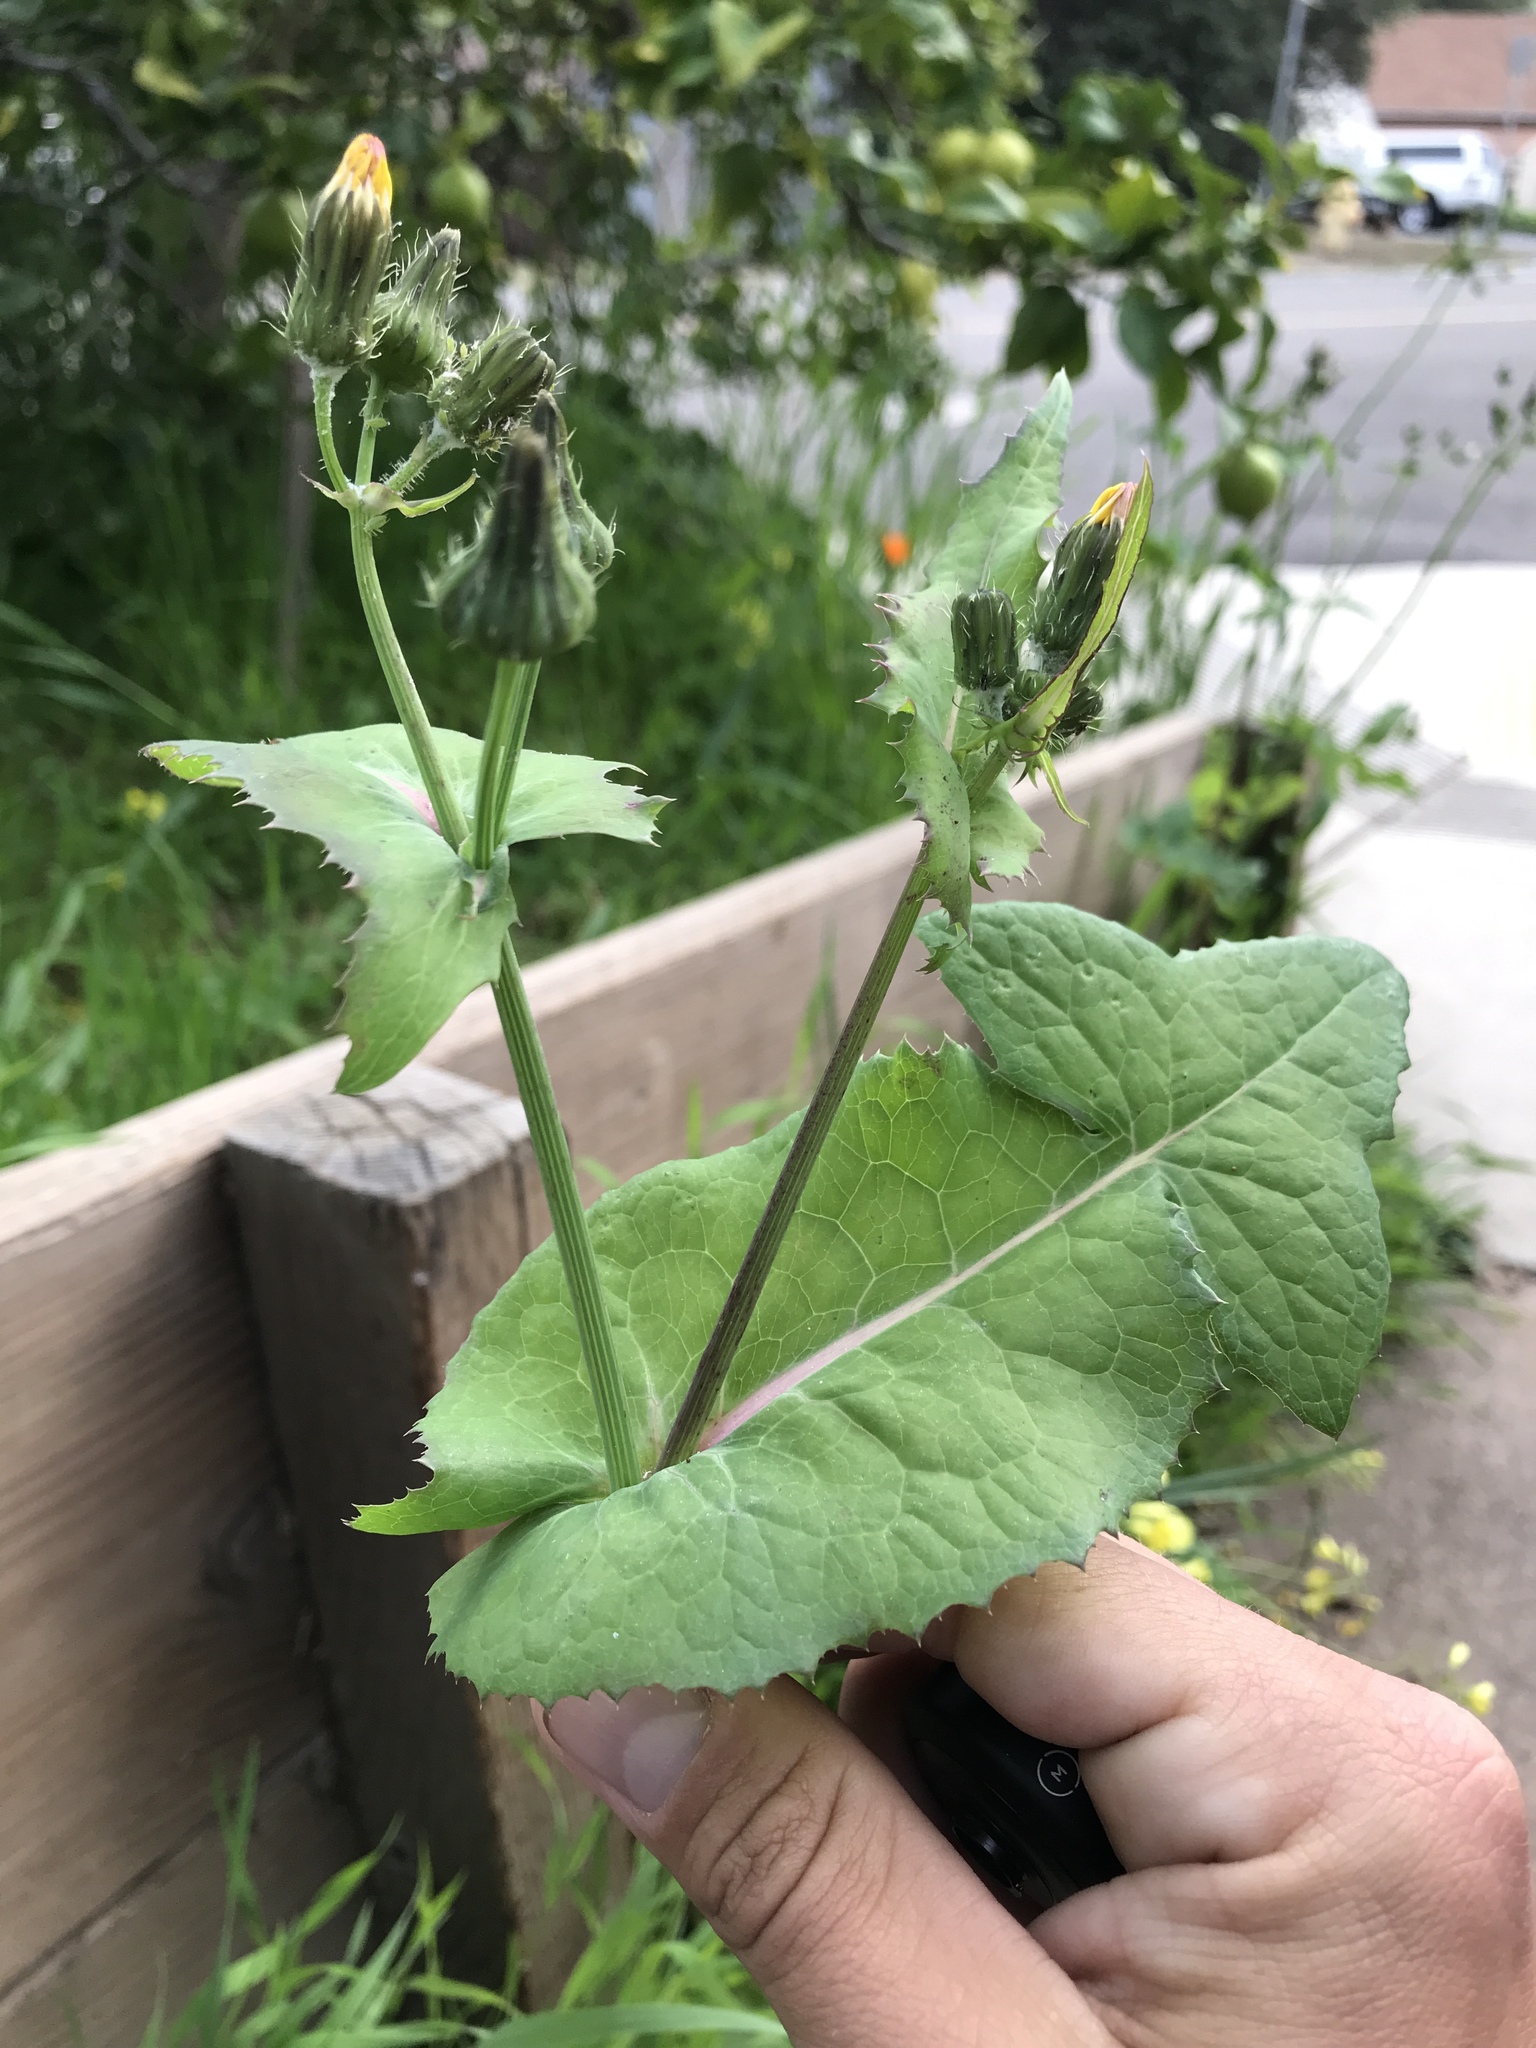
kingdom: Plantae
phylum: Tracheophyta
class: Magnoliopsida
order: Asterales
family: Asteraceae
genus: Sonchus
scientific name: Sonchus oleraceus
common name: Common sowthistle
